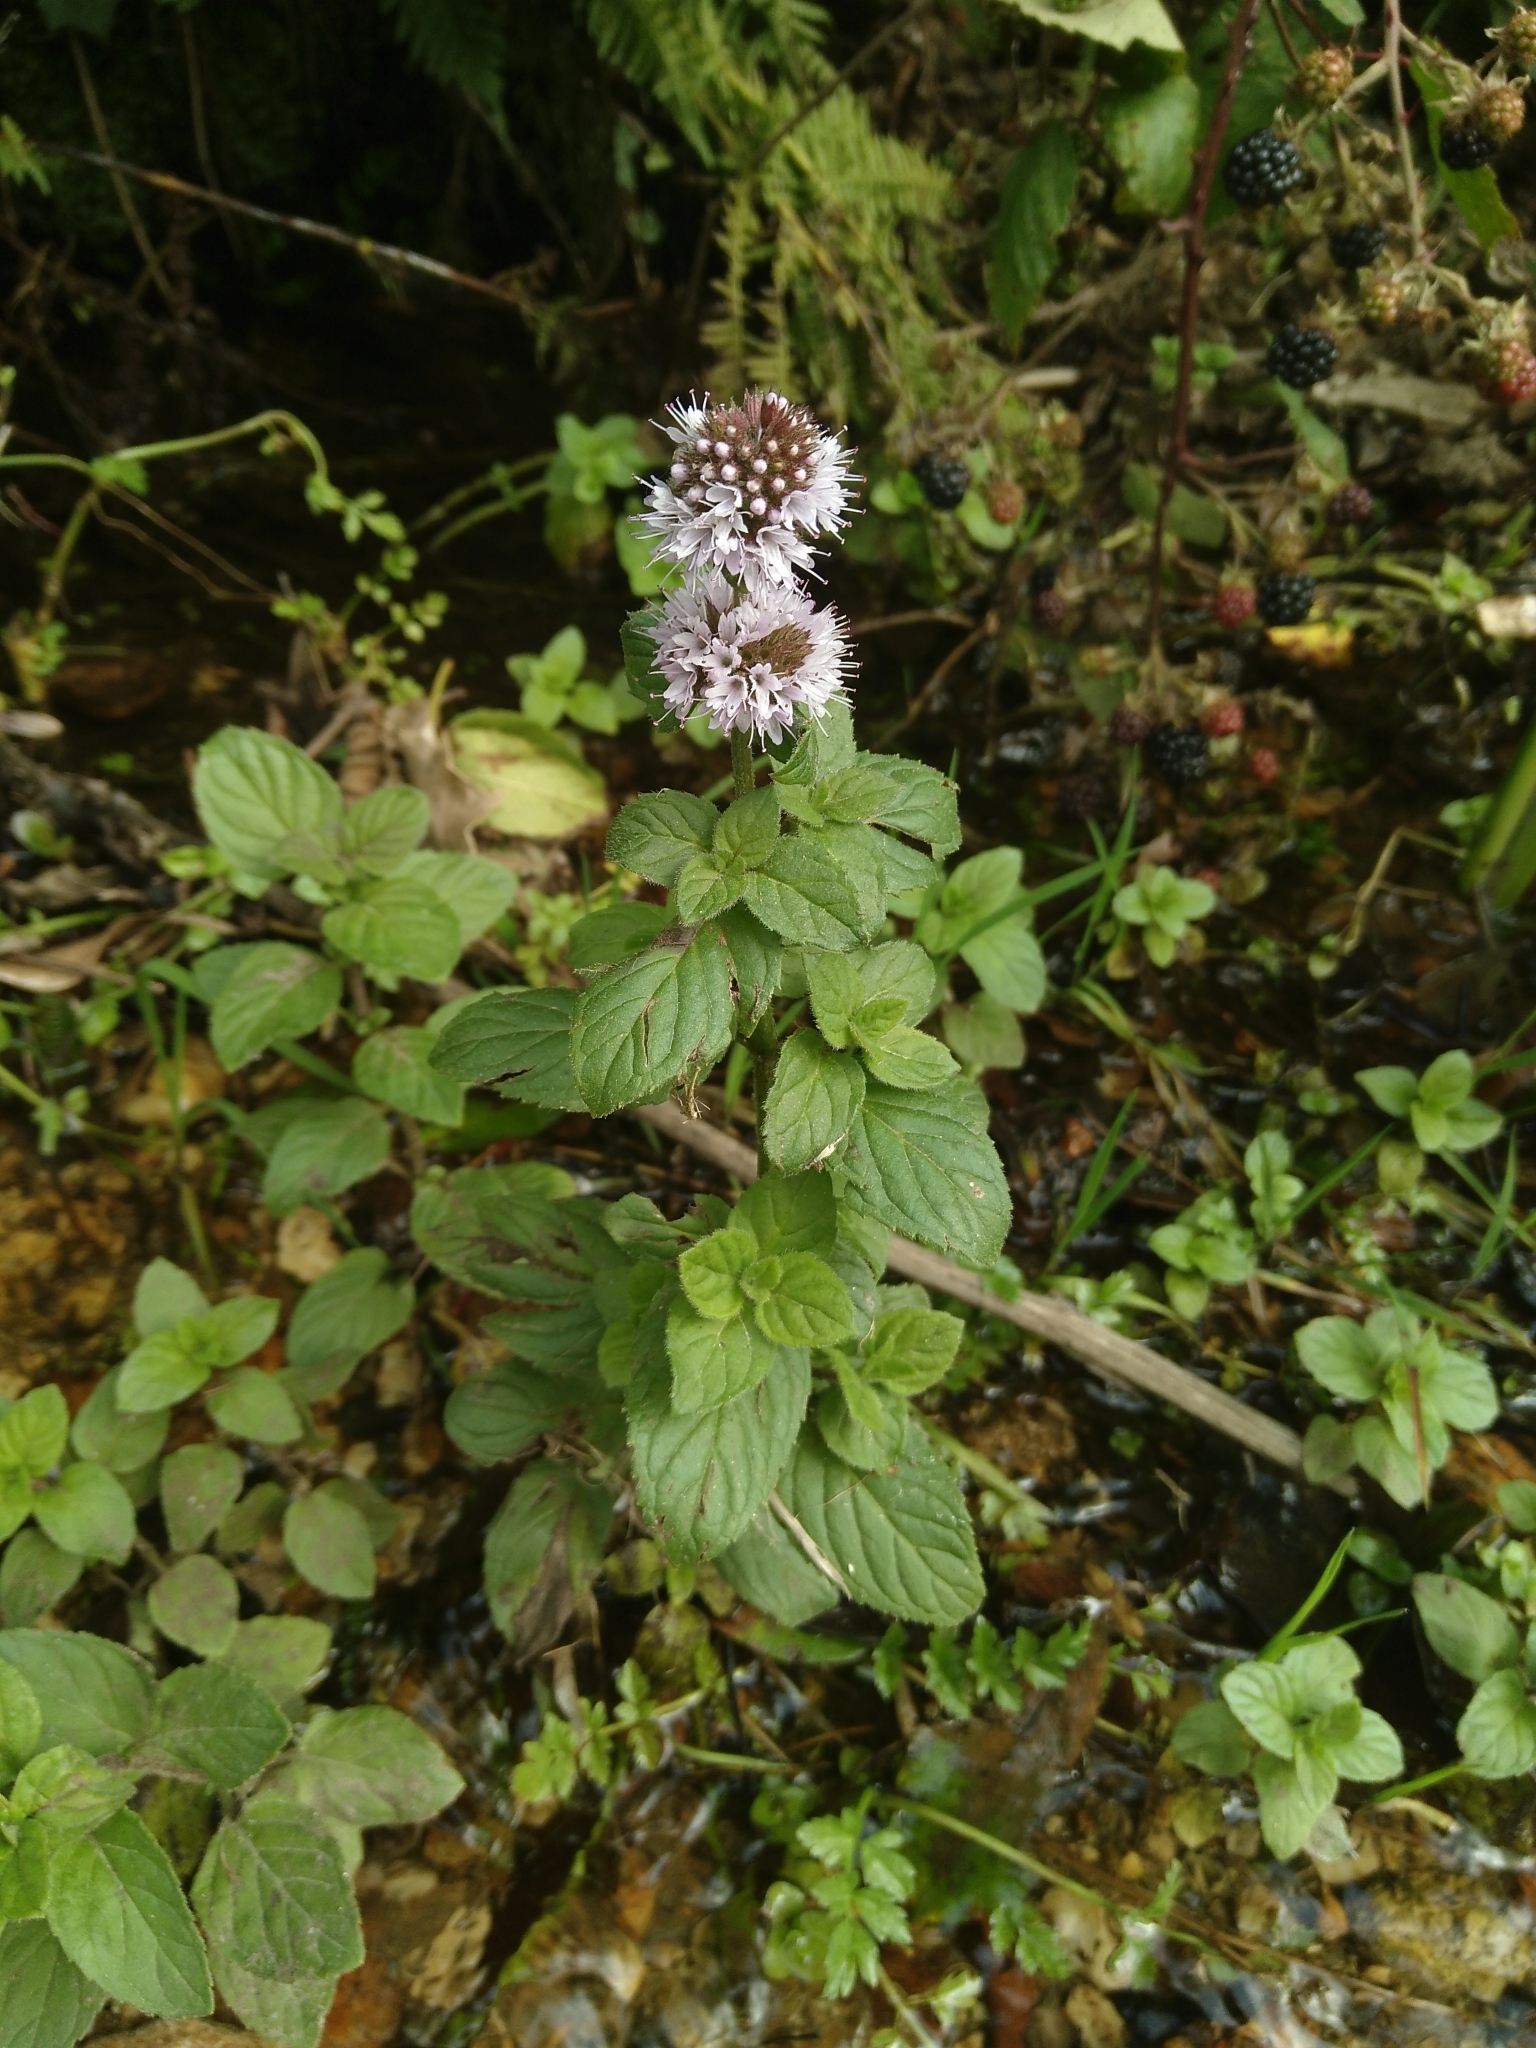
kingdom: Plantae
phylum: Tracheophyta
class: Magnoliopsida
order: Lamiales
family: Lamiaceae
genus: Mentha
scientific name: Mentha aquatica
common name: Water mint
